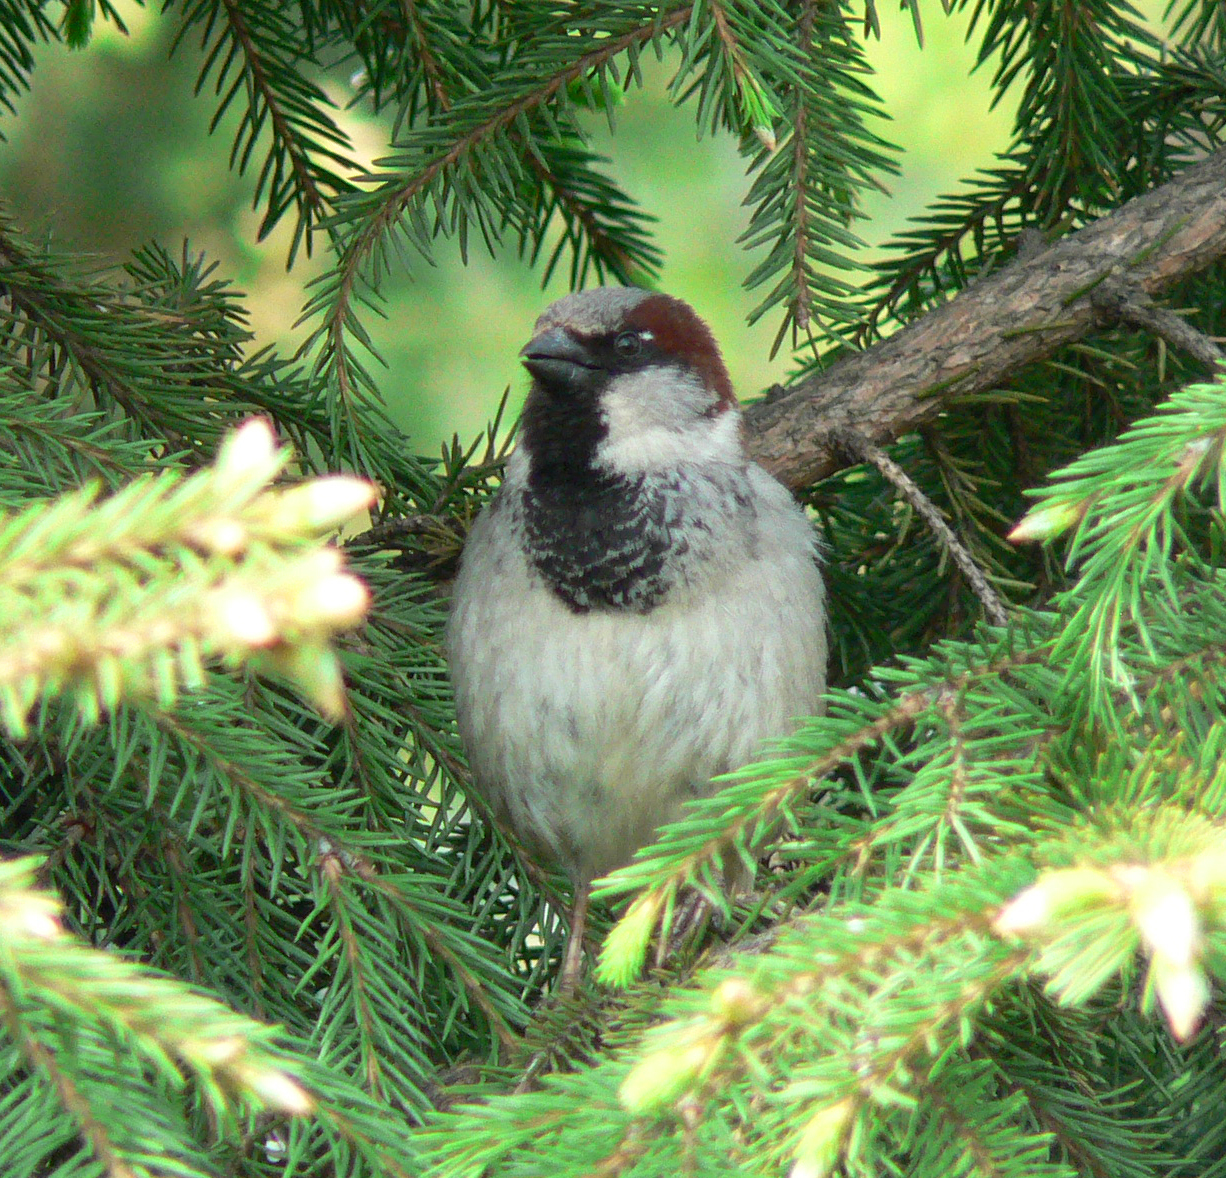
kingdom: Animalia
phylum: Chordata
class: Aves
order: Passeriformes
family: Passeridae
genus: Passer
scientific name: Passer domesticus
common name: House sparrow
